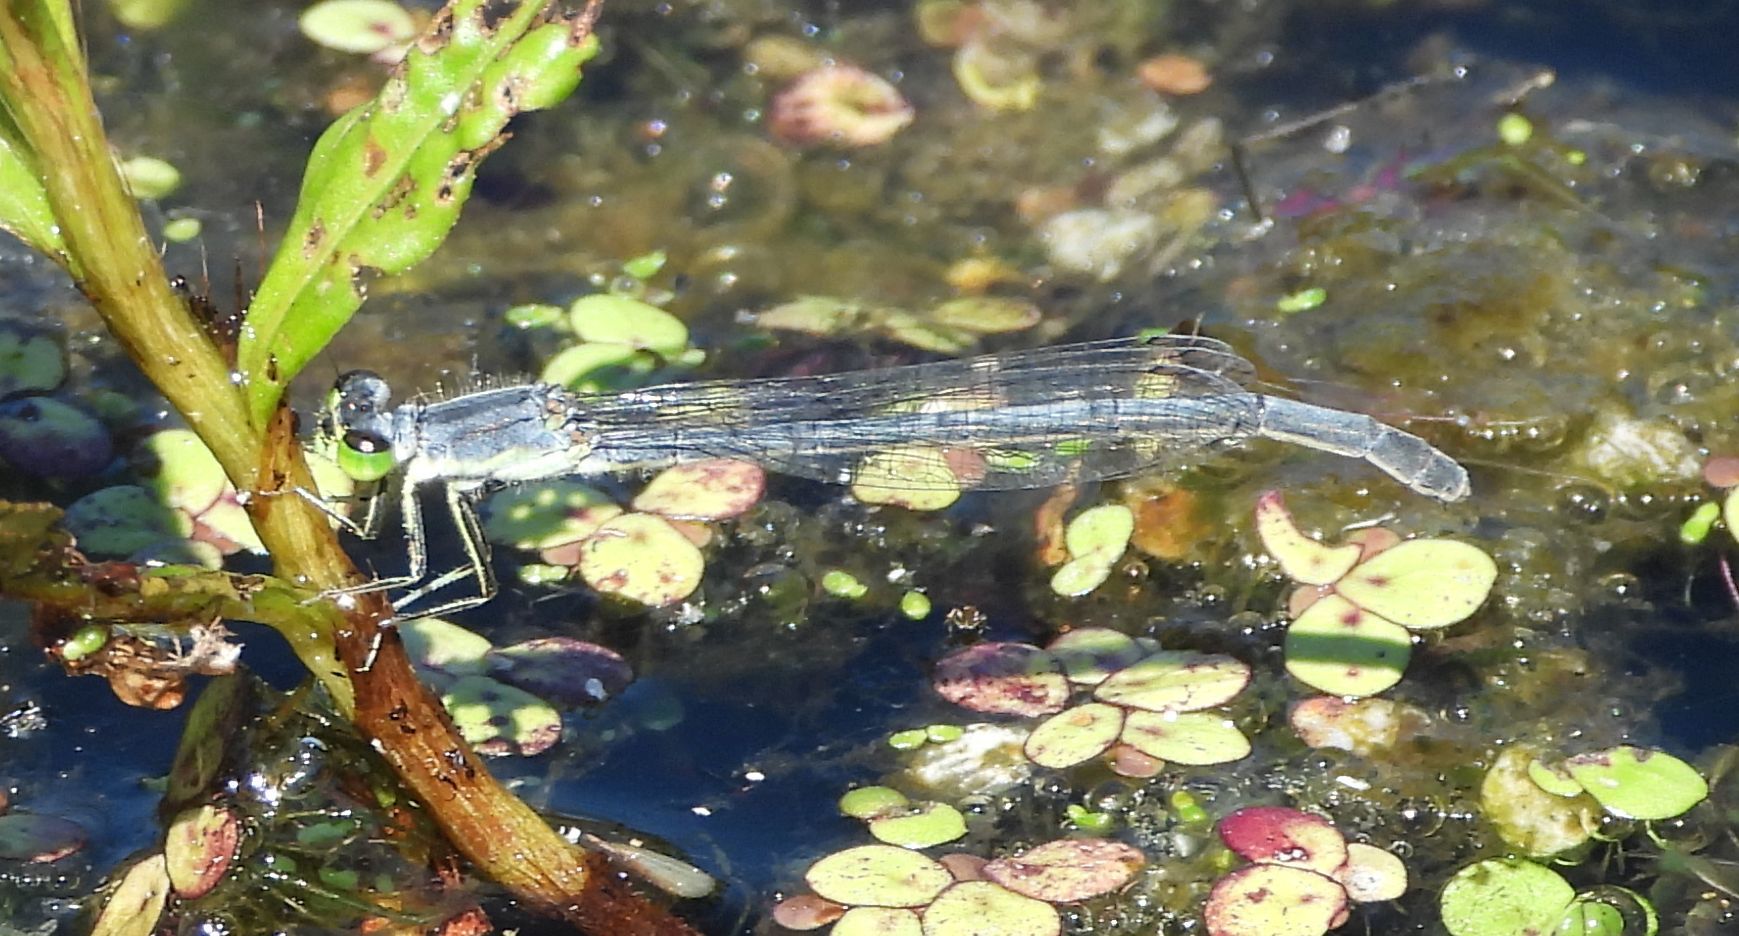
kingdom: Animalia
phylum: Arthropoda
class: Insecta
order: Odonata
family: Coenagrionidae
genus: Ischnura
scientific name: Ischnura verticalis
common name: Eastern forktail
